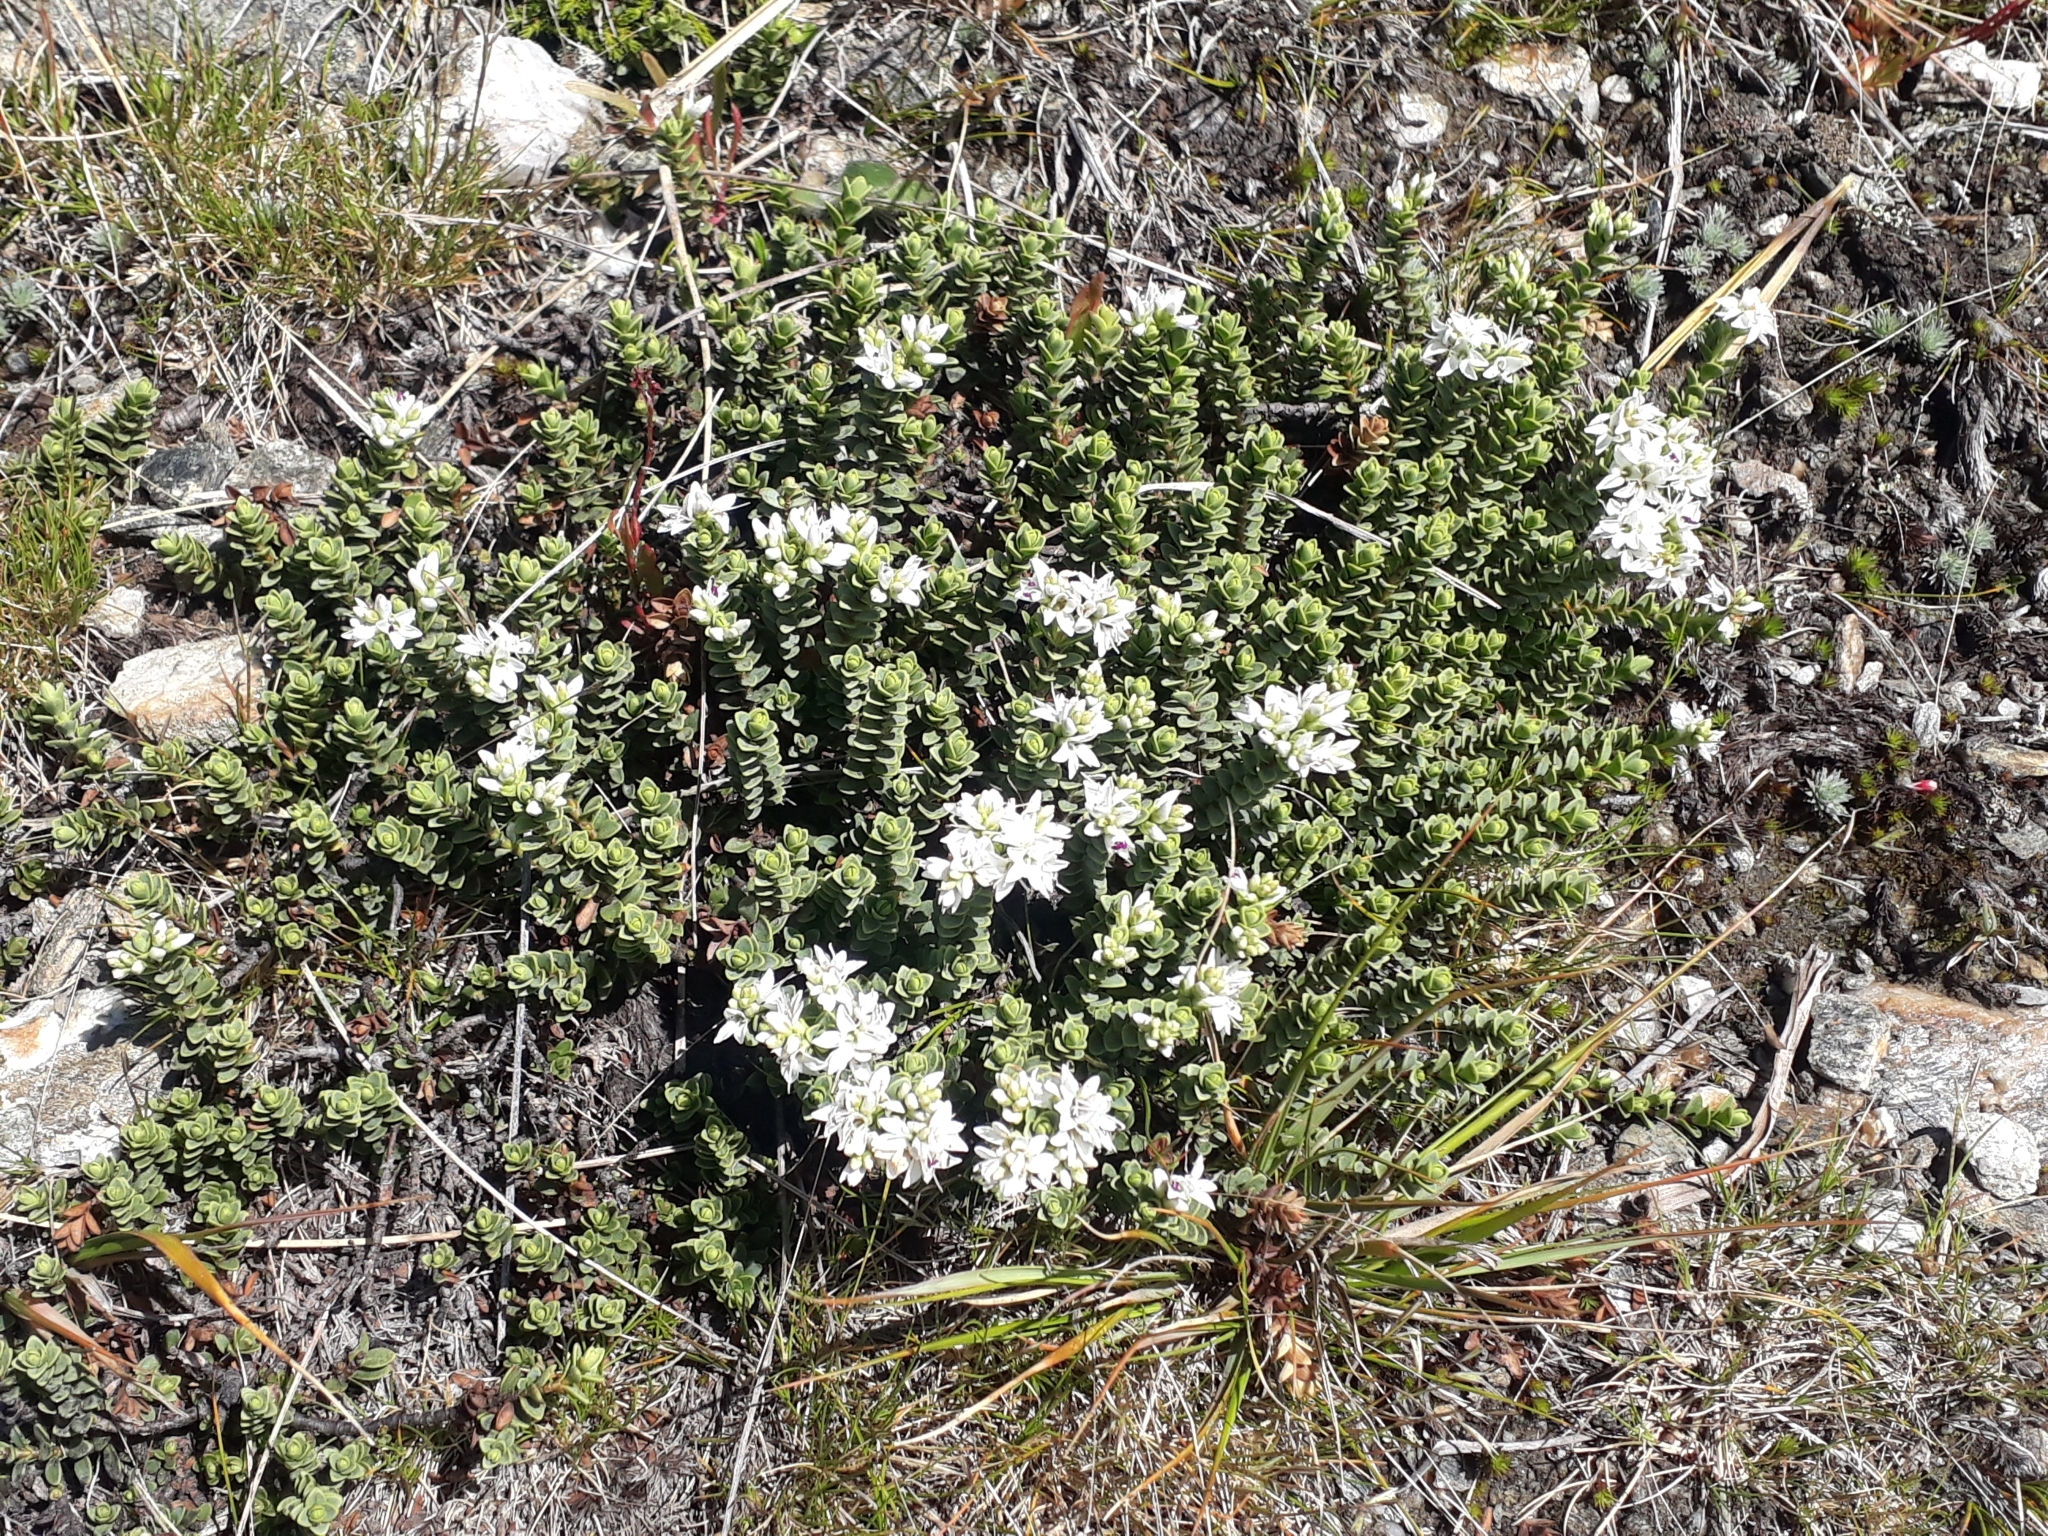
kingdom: Plantae
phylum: Tracheophyta
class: Magnoliopsida
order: Lamiales
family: Plantaginaceae
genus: Veronica
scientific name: Veronica buchananii
